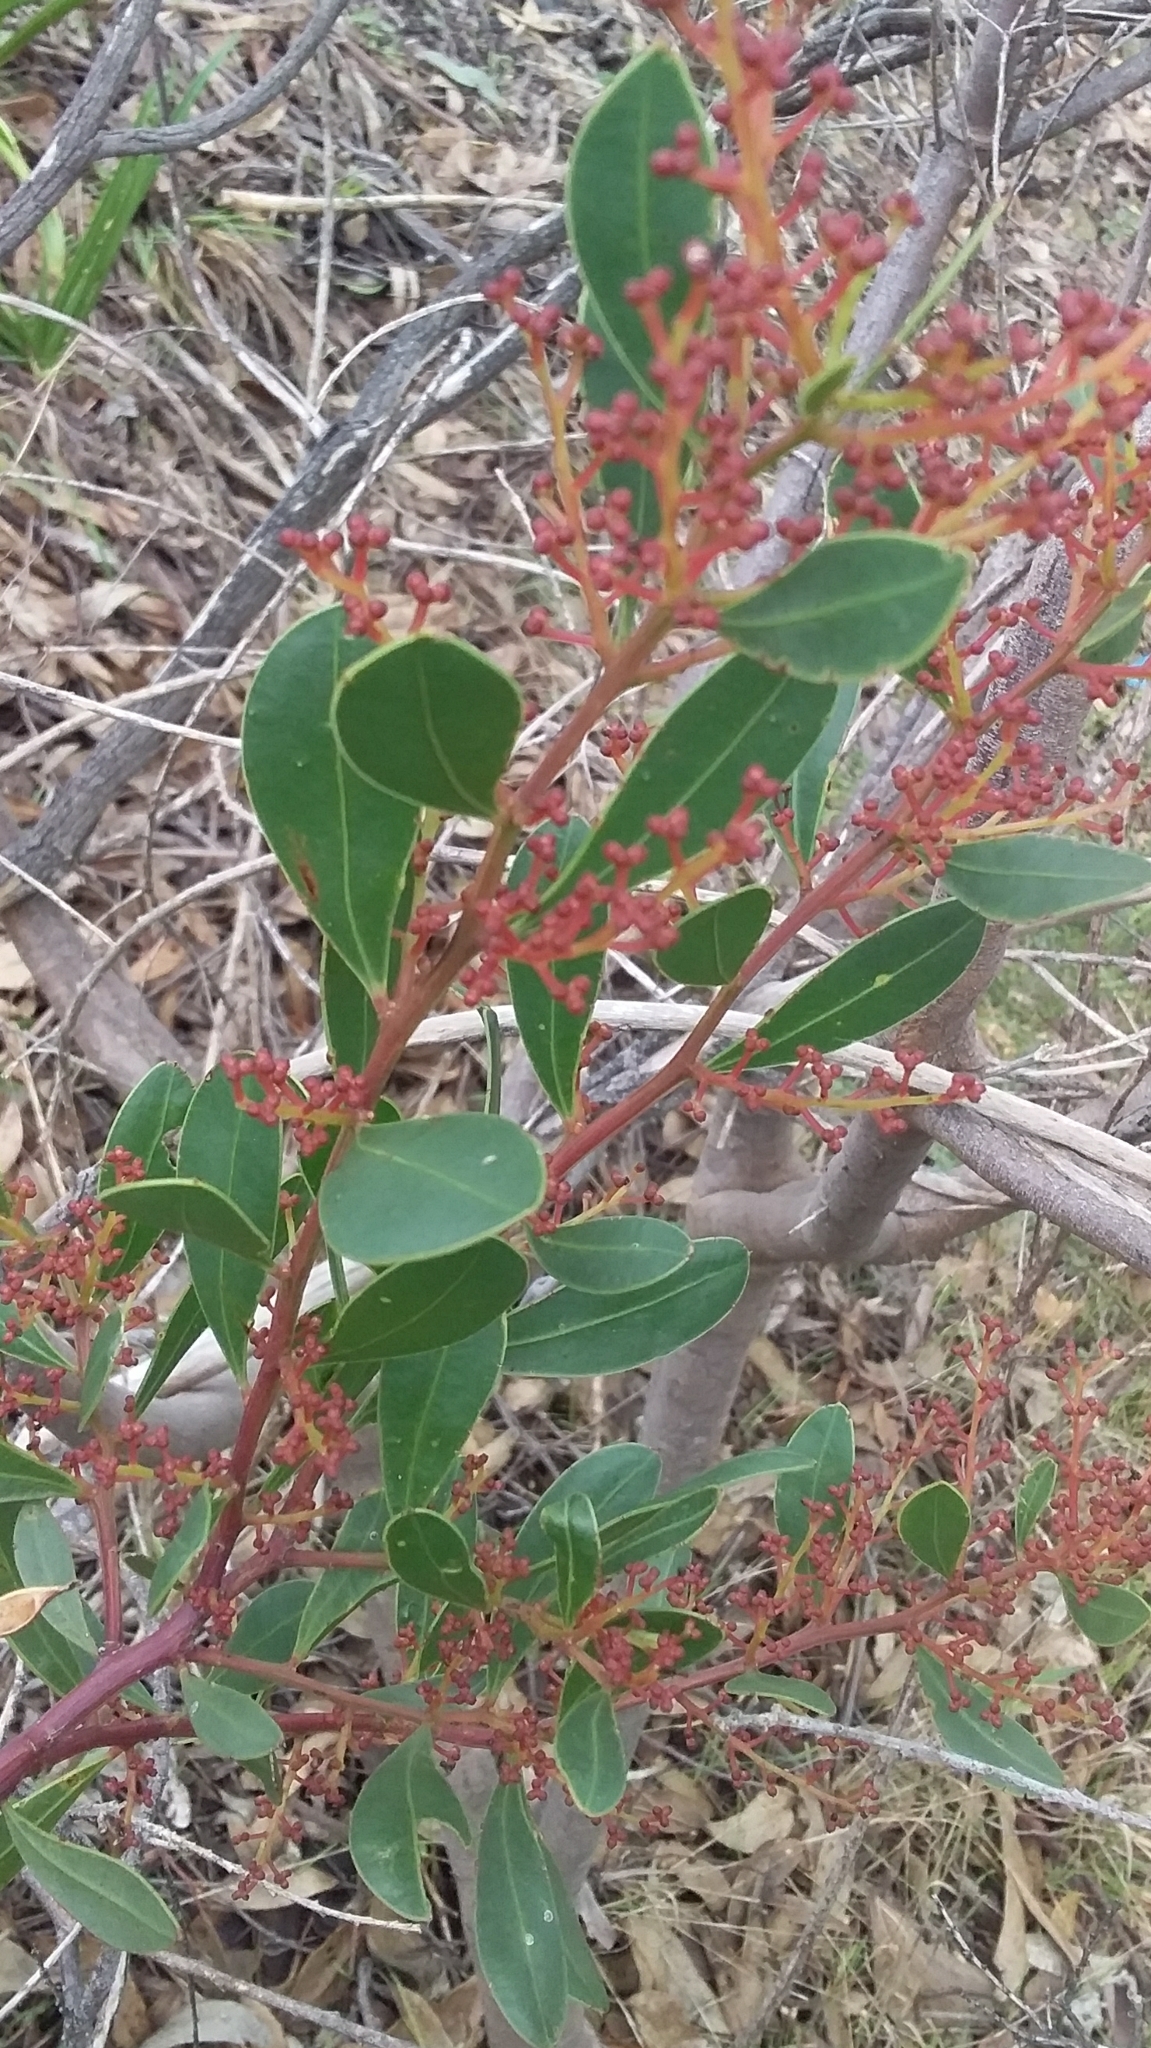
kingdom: Plantae
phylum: Tracheophyta
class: Magnoliopsida
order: Fabales
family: Fabaceae
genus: Acacia
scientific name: Acacia myrtifolia
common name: Myrtle wattle
